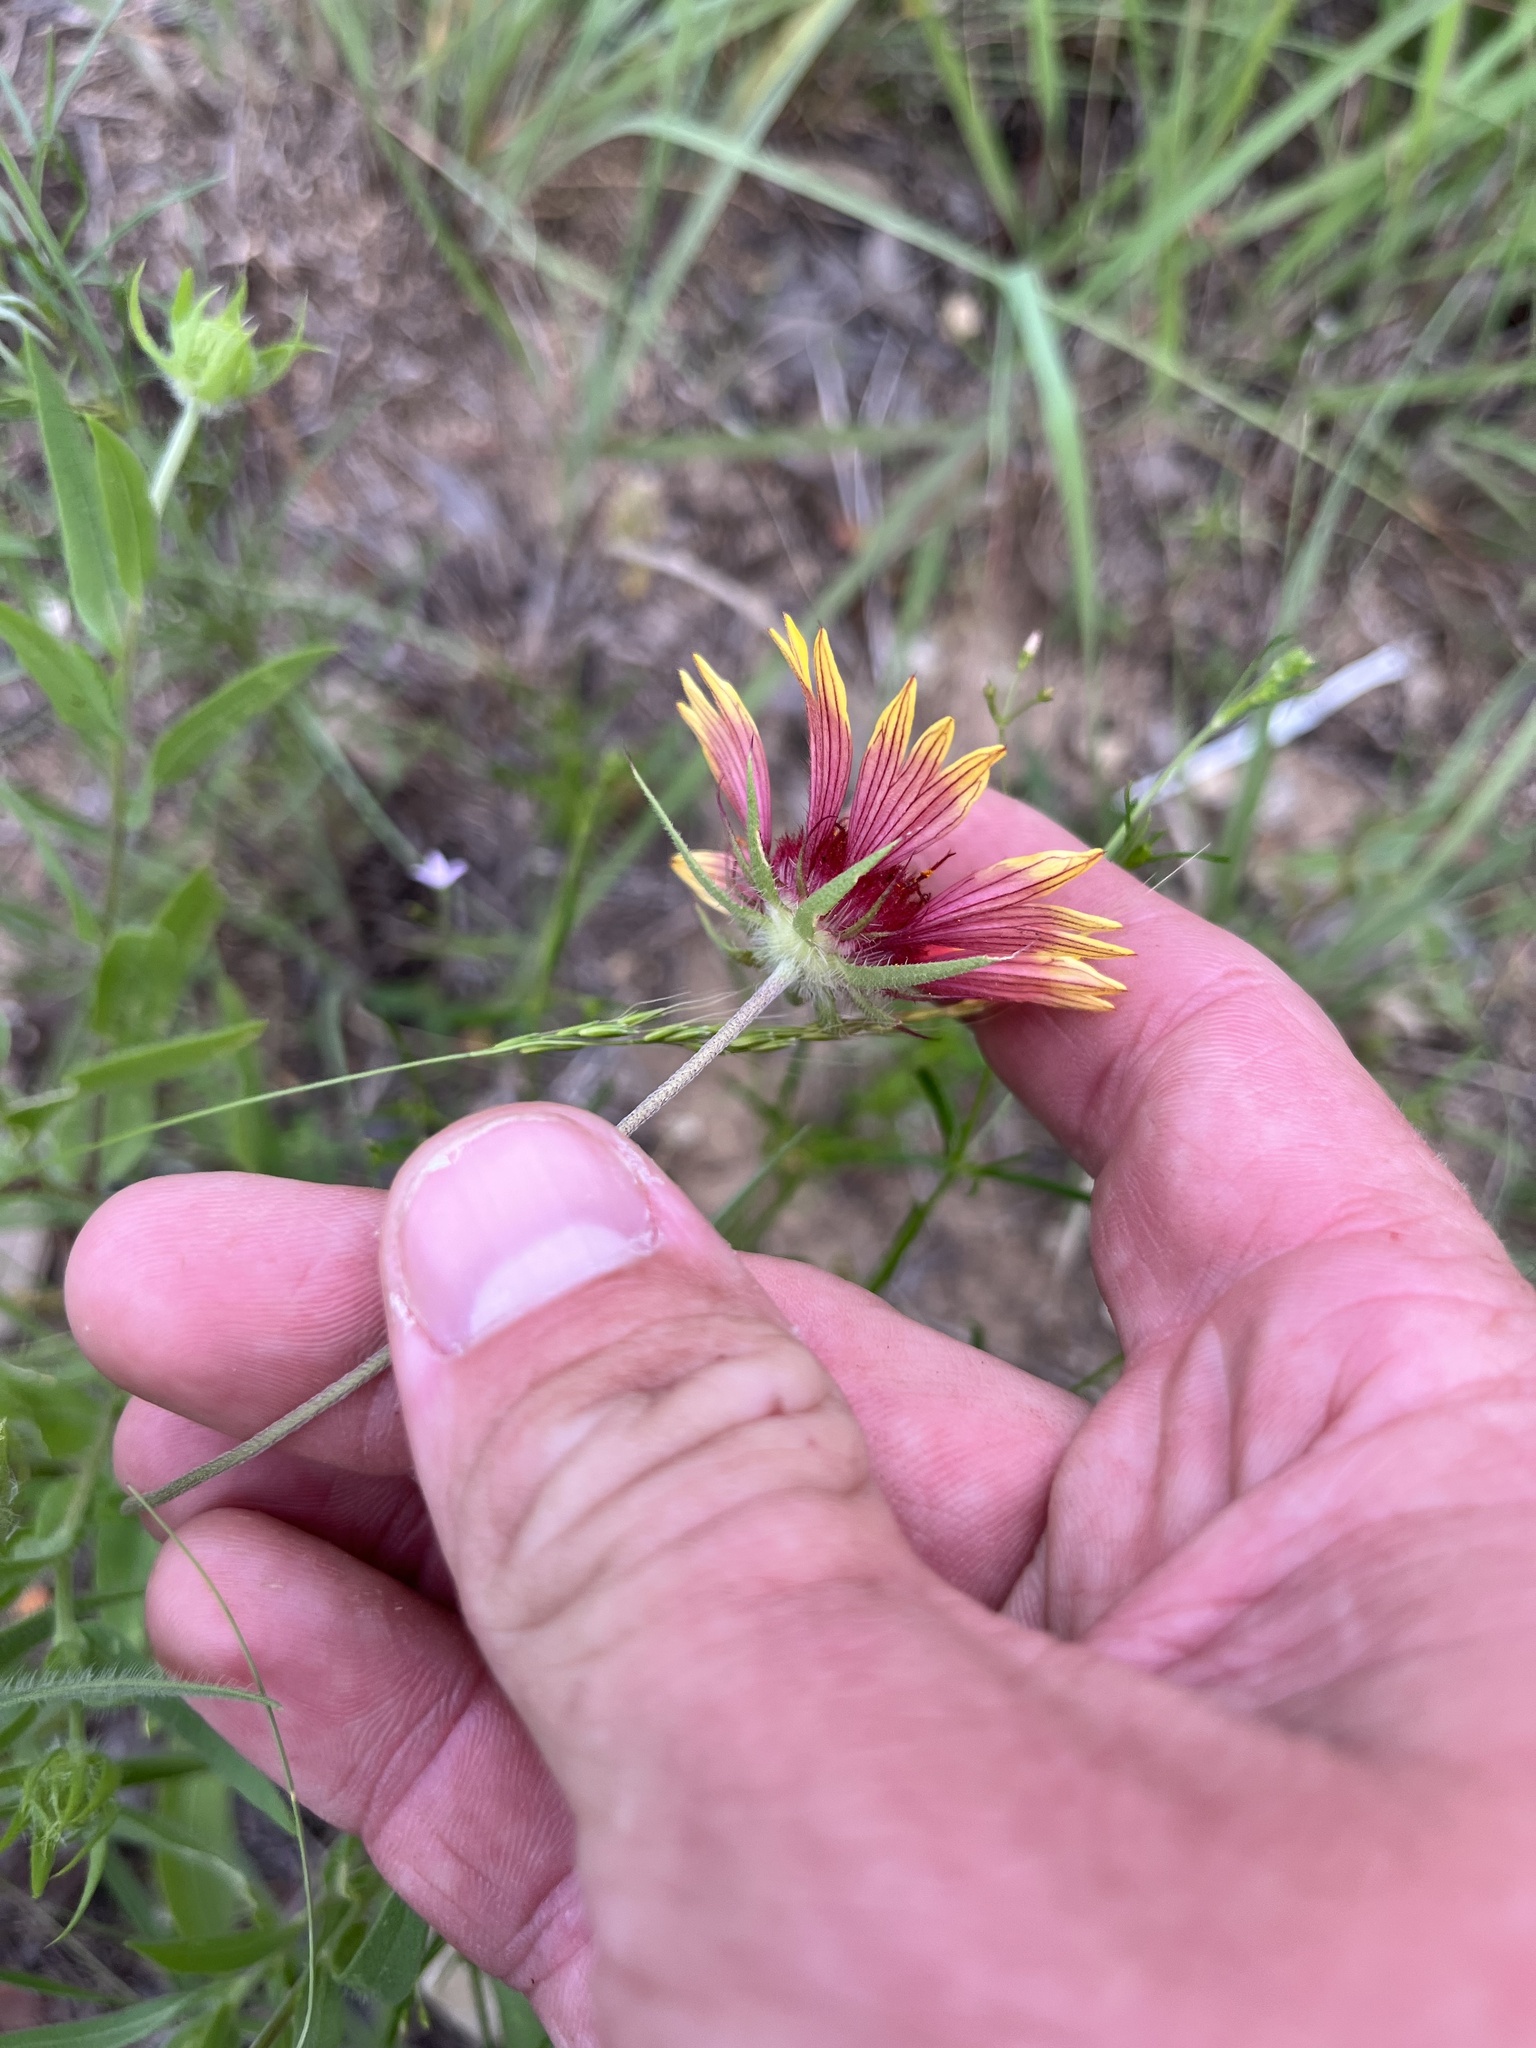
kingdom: Plantae
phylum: Tracheophyta
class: Magnoliopsida
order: Asterales
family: Asteraceae
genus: Gaillardia
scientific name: Gaillardia pulchella
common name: Firewheel
